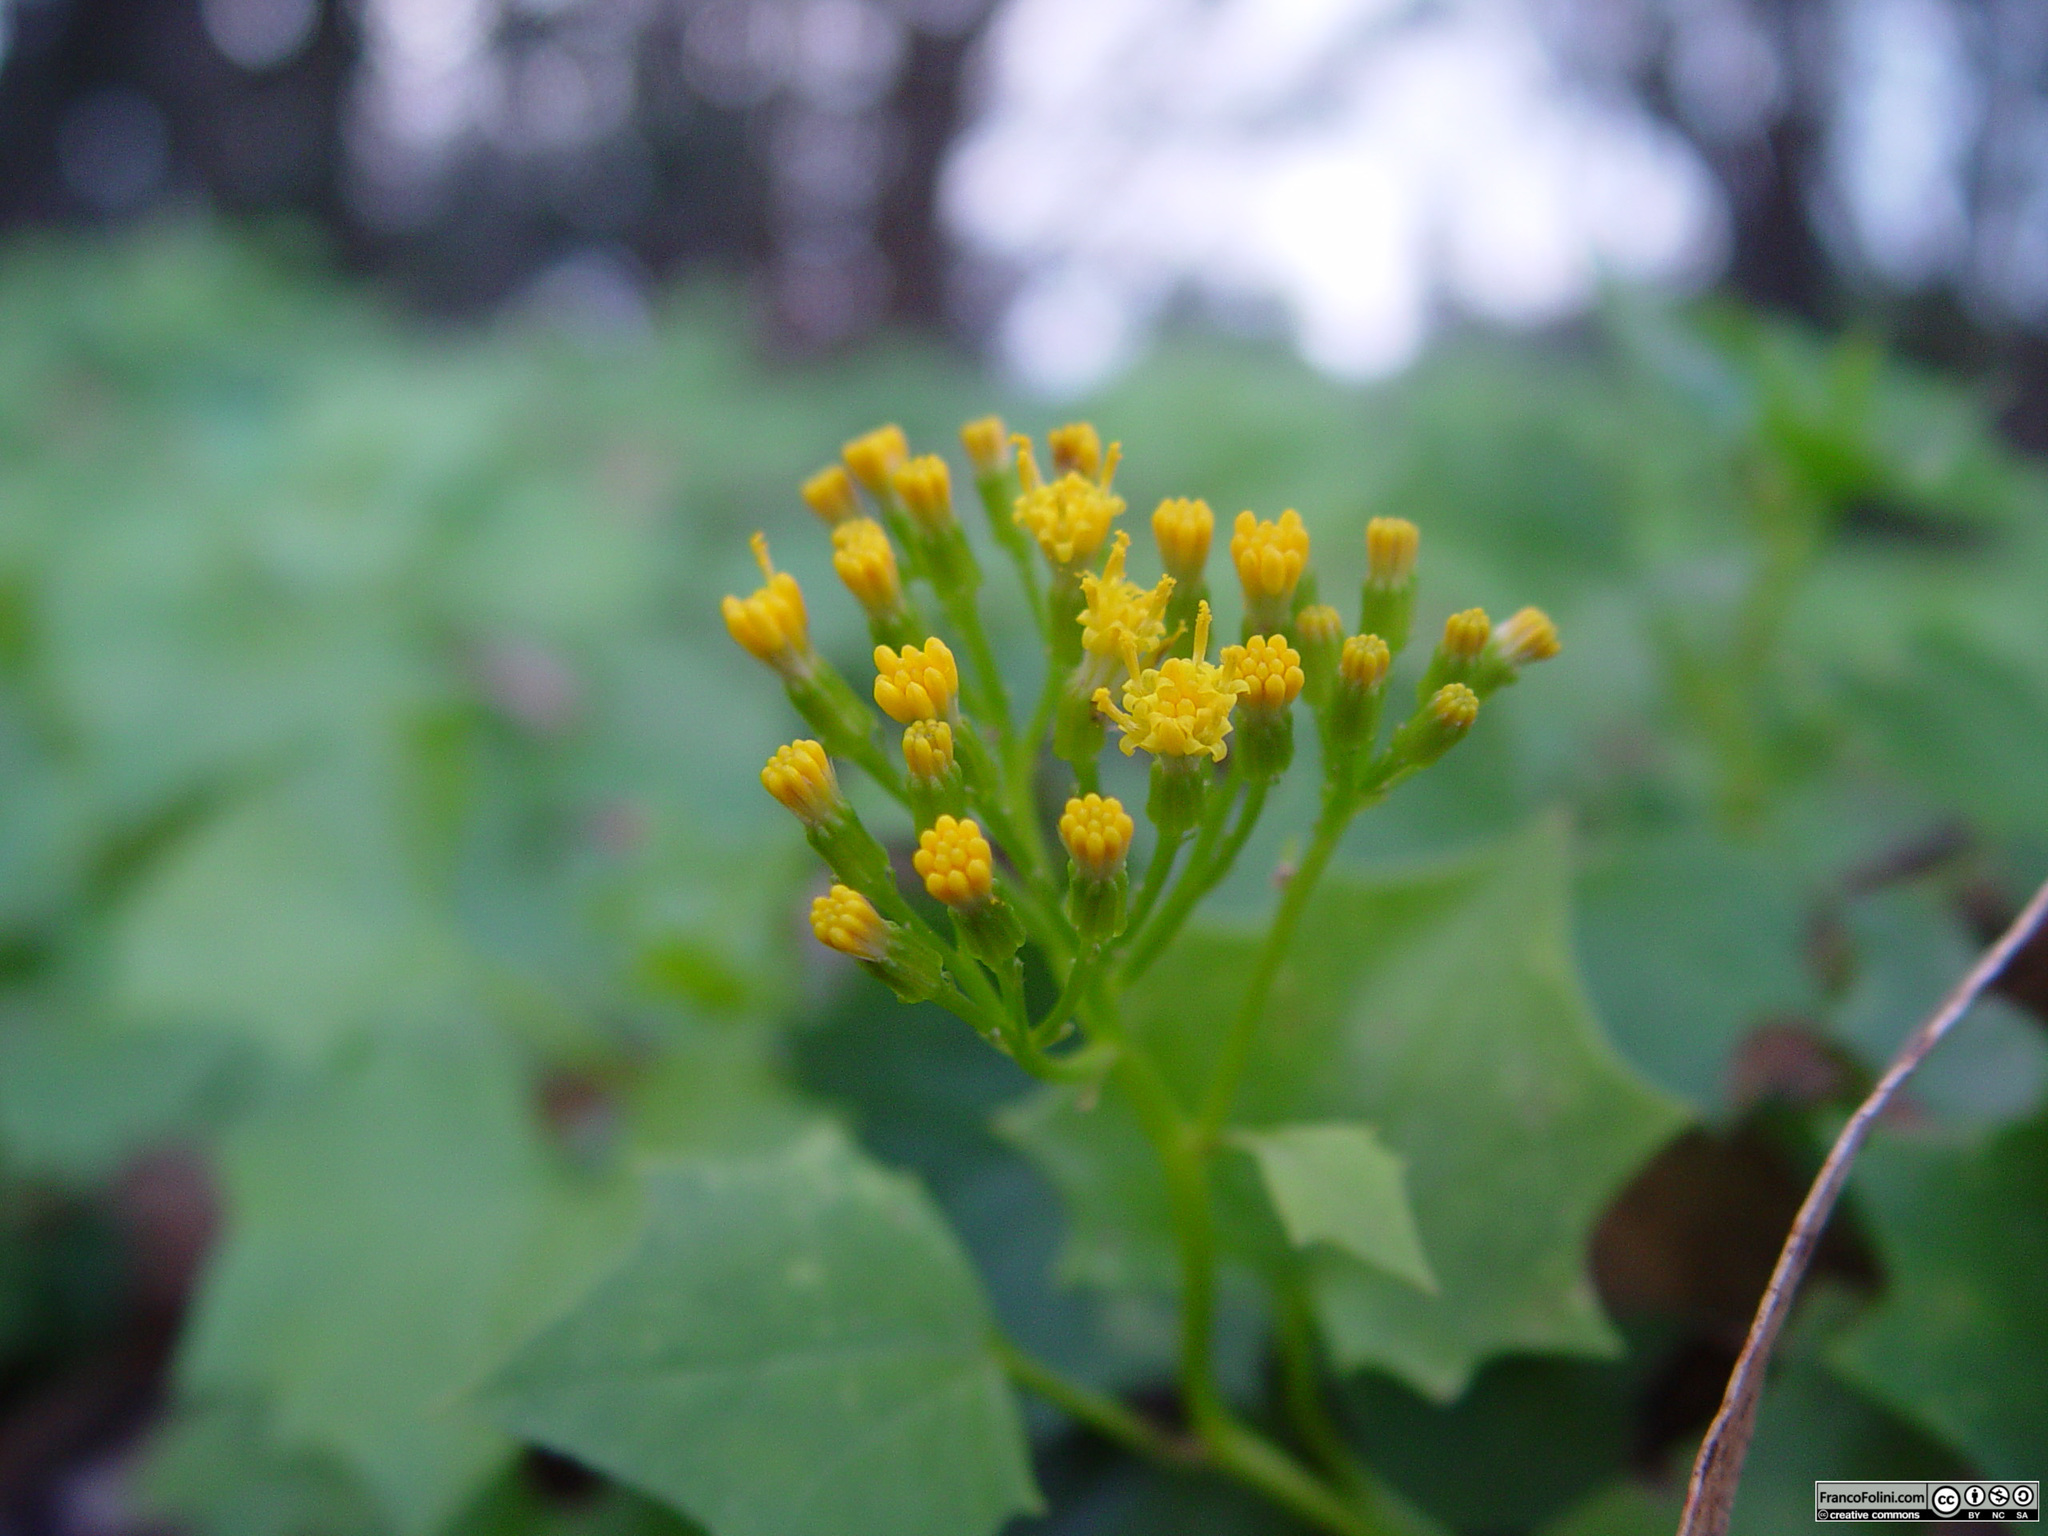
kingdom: Plantae
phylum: Tracheophyta
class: Magnoliopsida
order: Asterales
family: Asteraceae
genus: Delairea
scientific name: Delairea odorata
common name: Cape-ivy
